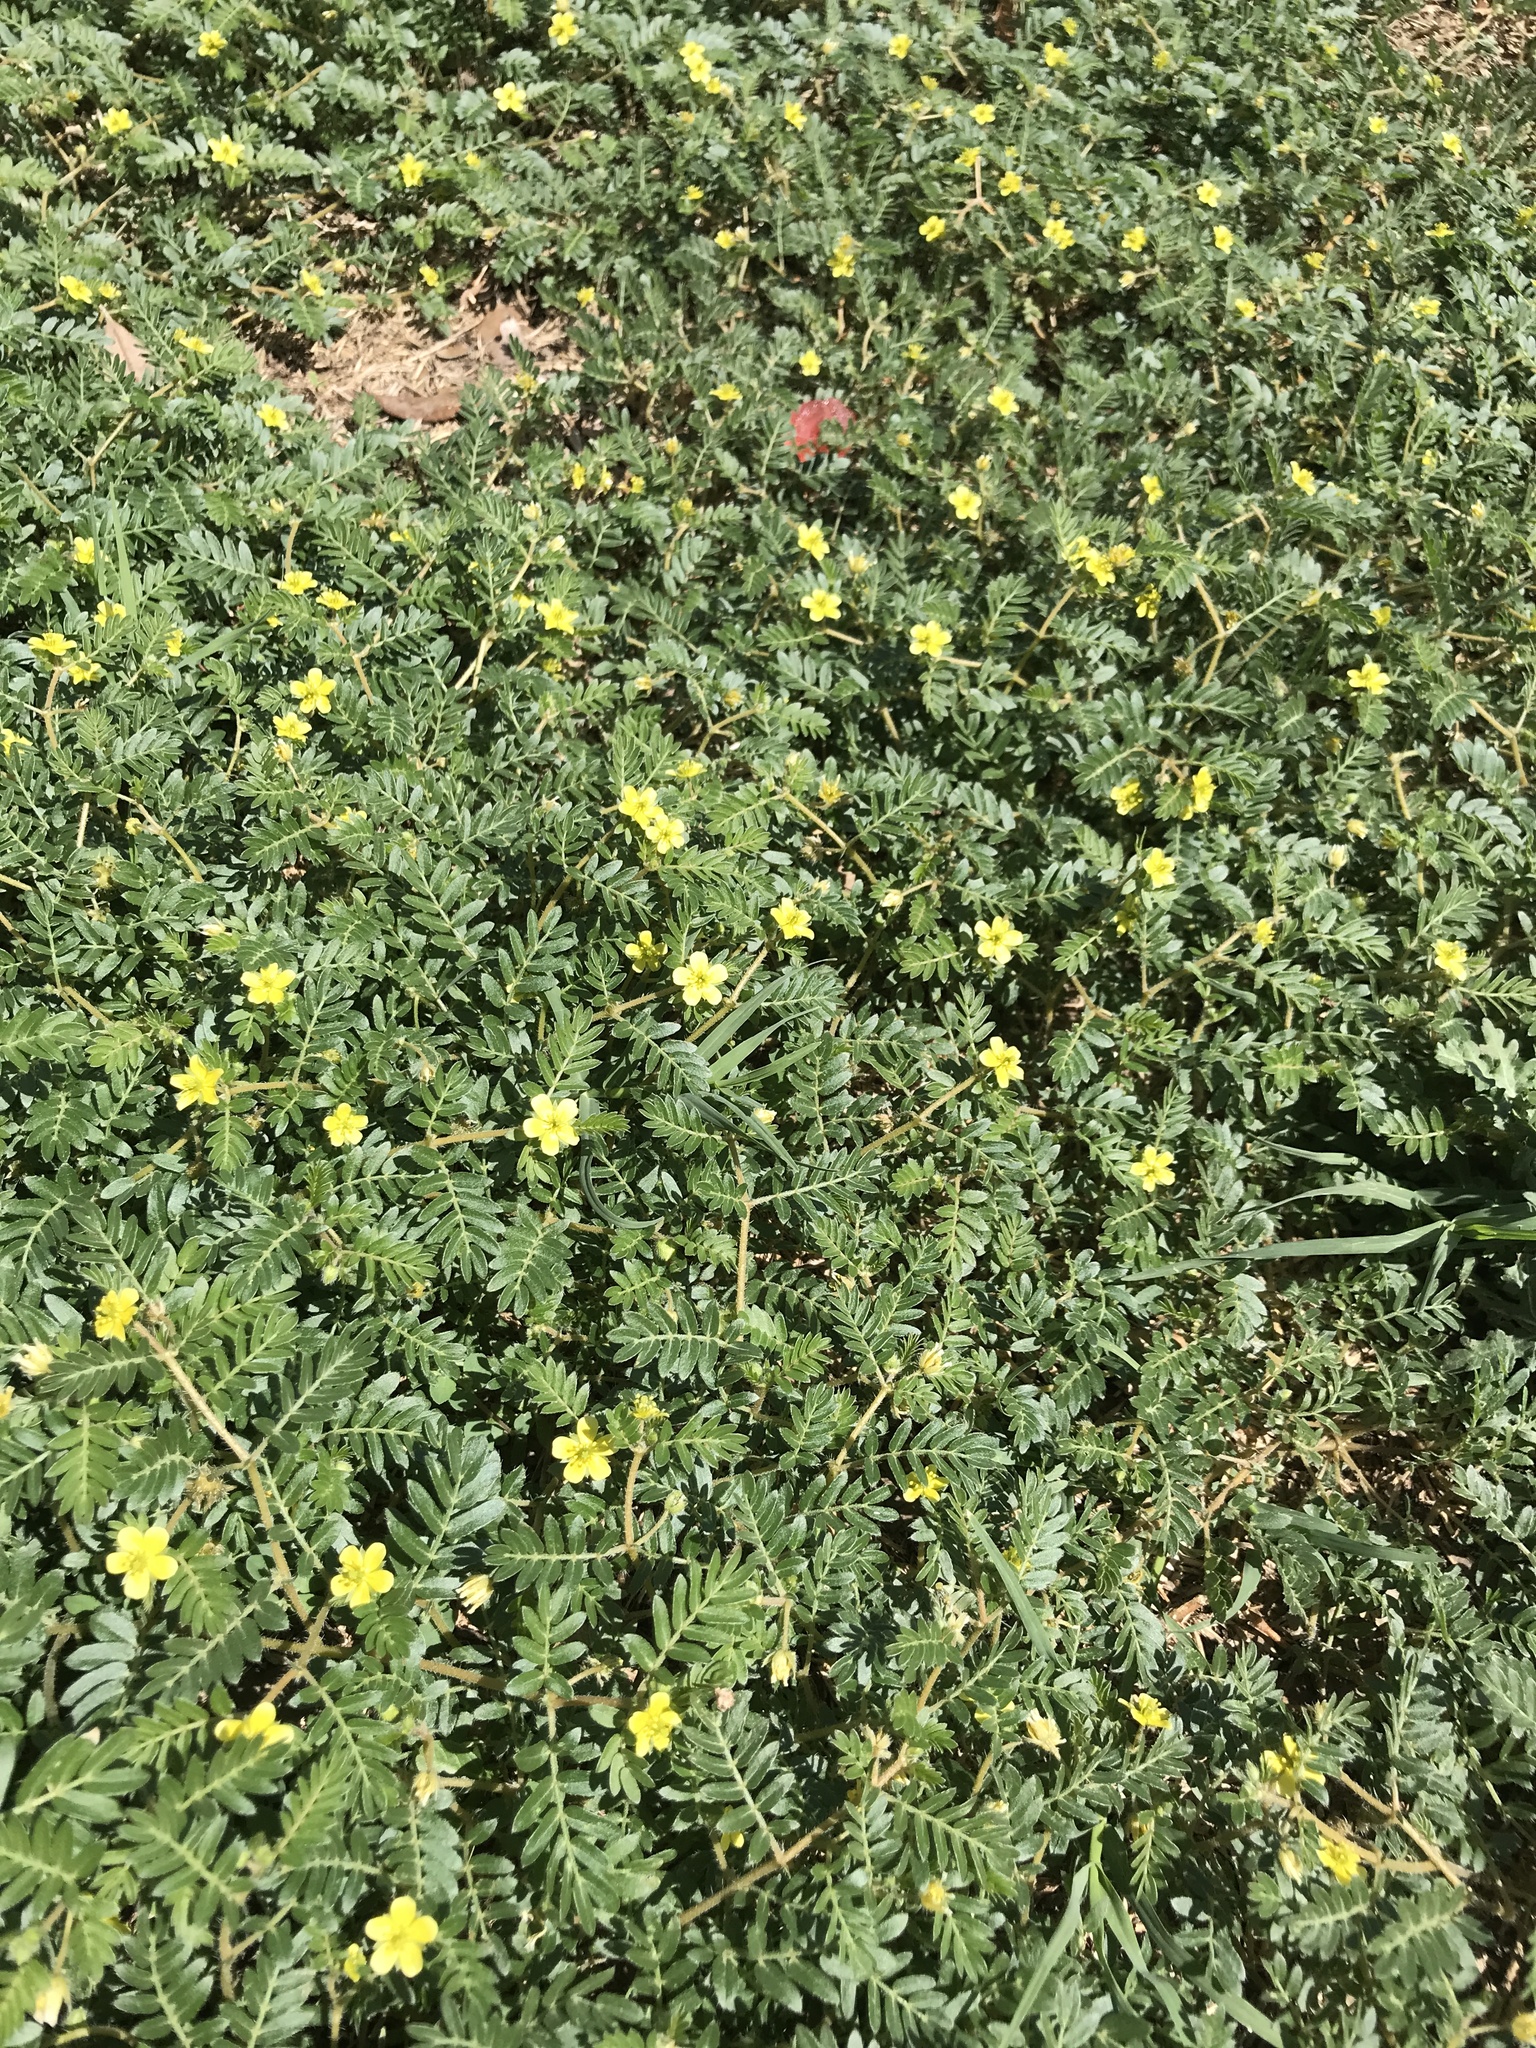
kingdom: Plantae
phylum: Tracheophyta
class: Magnoliopsida
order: Zygophyllales
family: Zygophyllaceae
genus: Tribulus
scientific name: Tribulus terrestris
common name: Puncturevine
